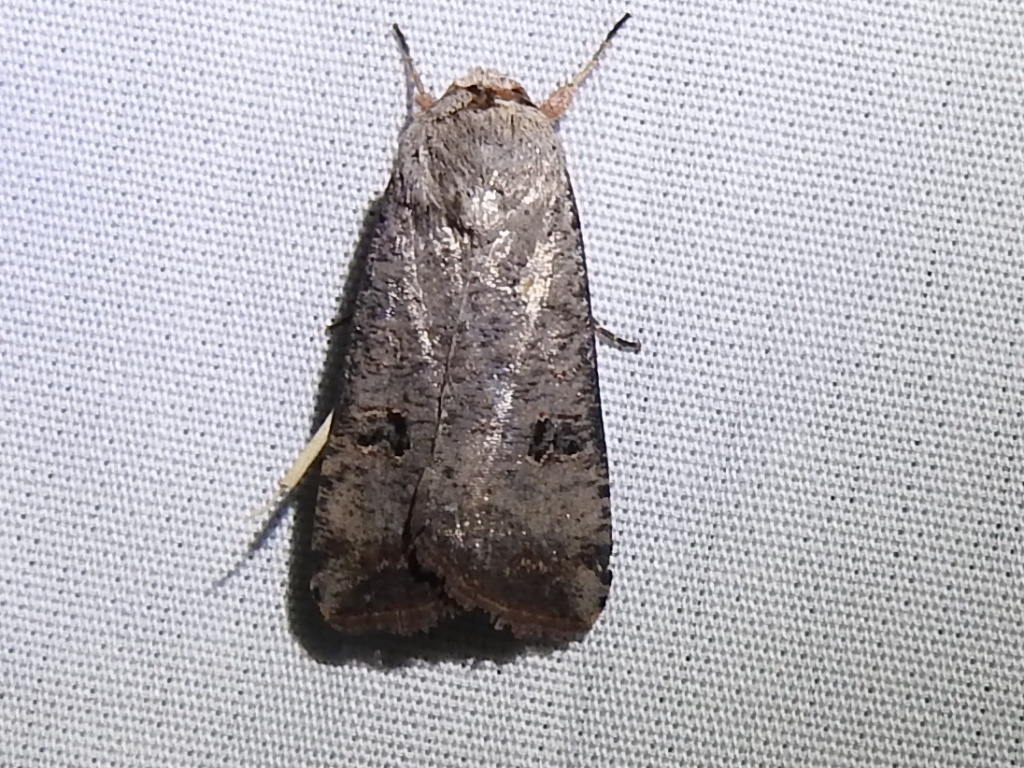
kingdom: Animalia
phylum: Arthropoda
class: Insecta
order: Lepidoptera
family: Noctuidae
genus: Anicla
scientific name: Anicla infecta
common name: Green cutworm
